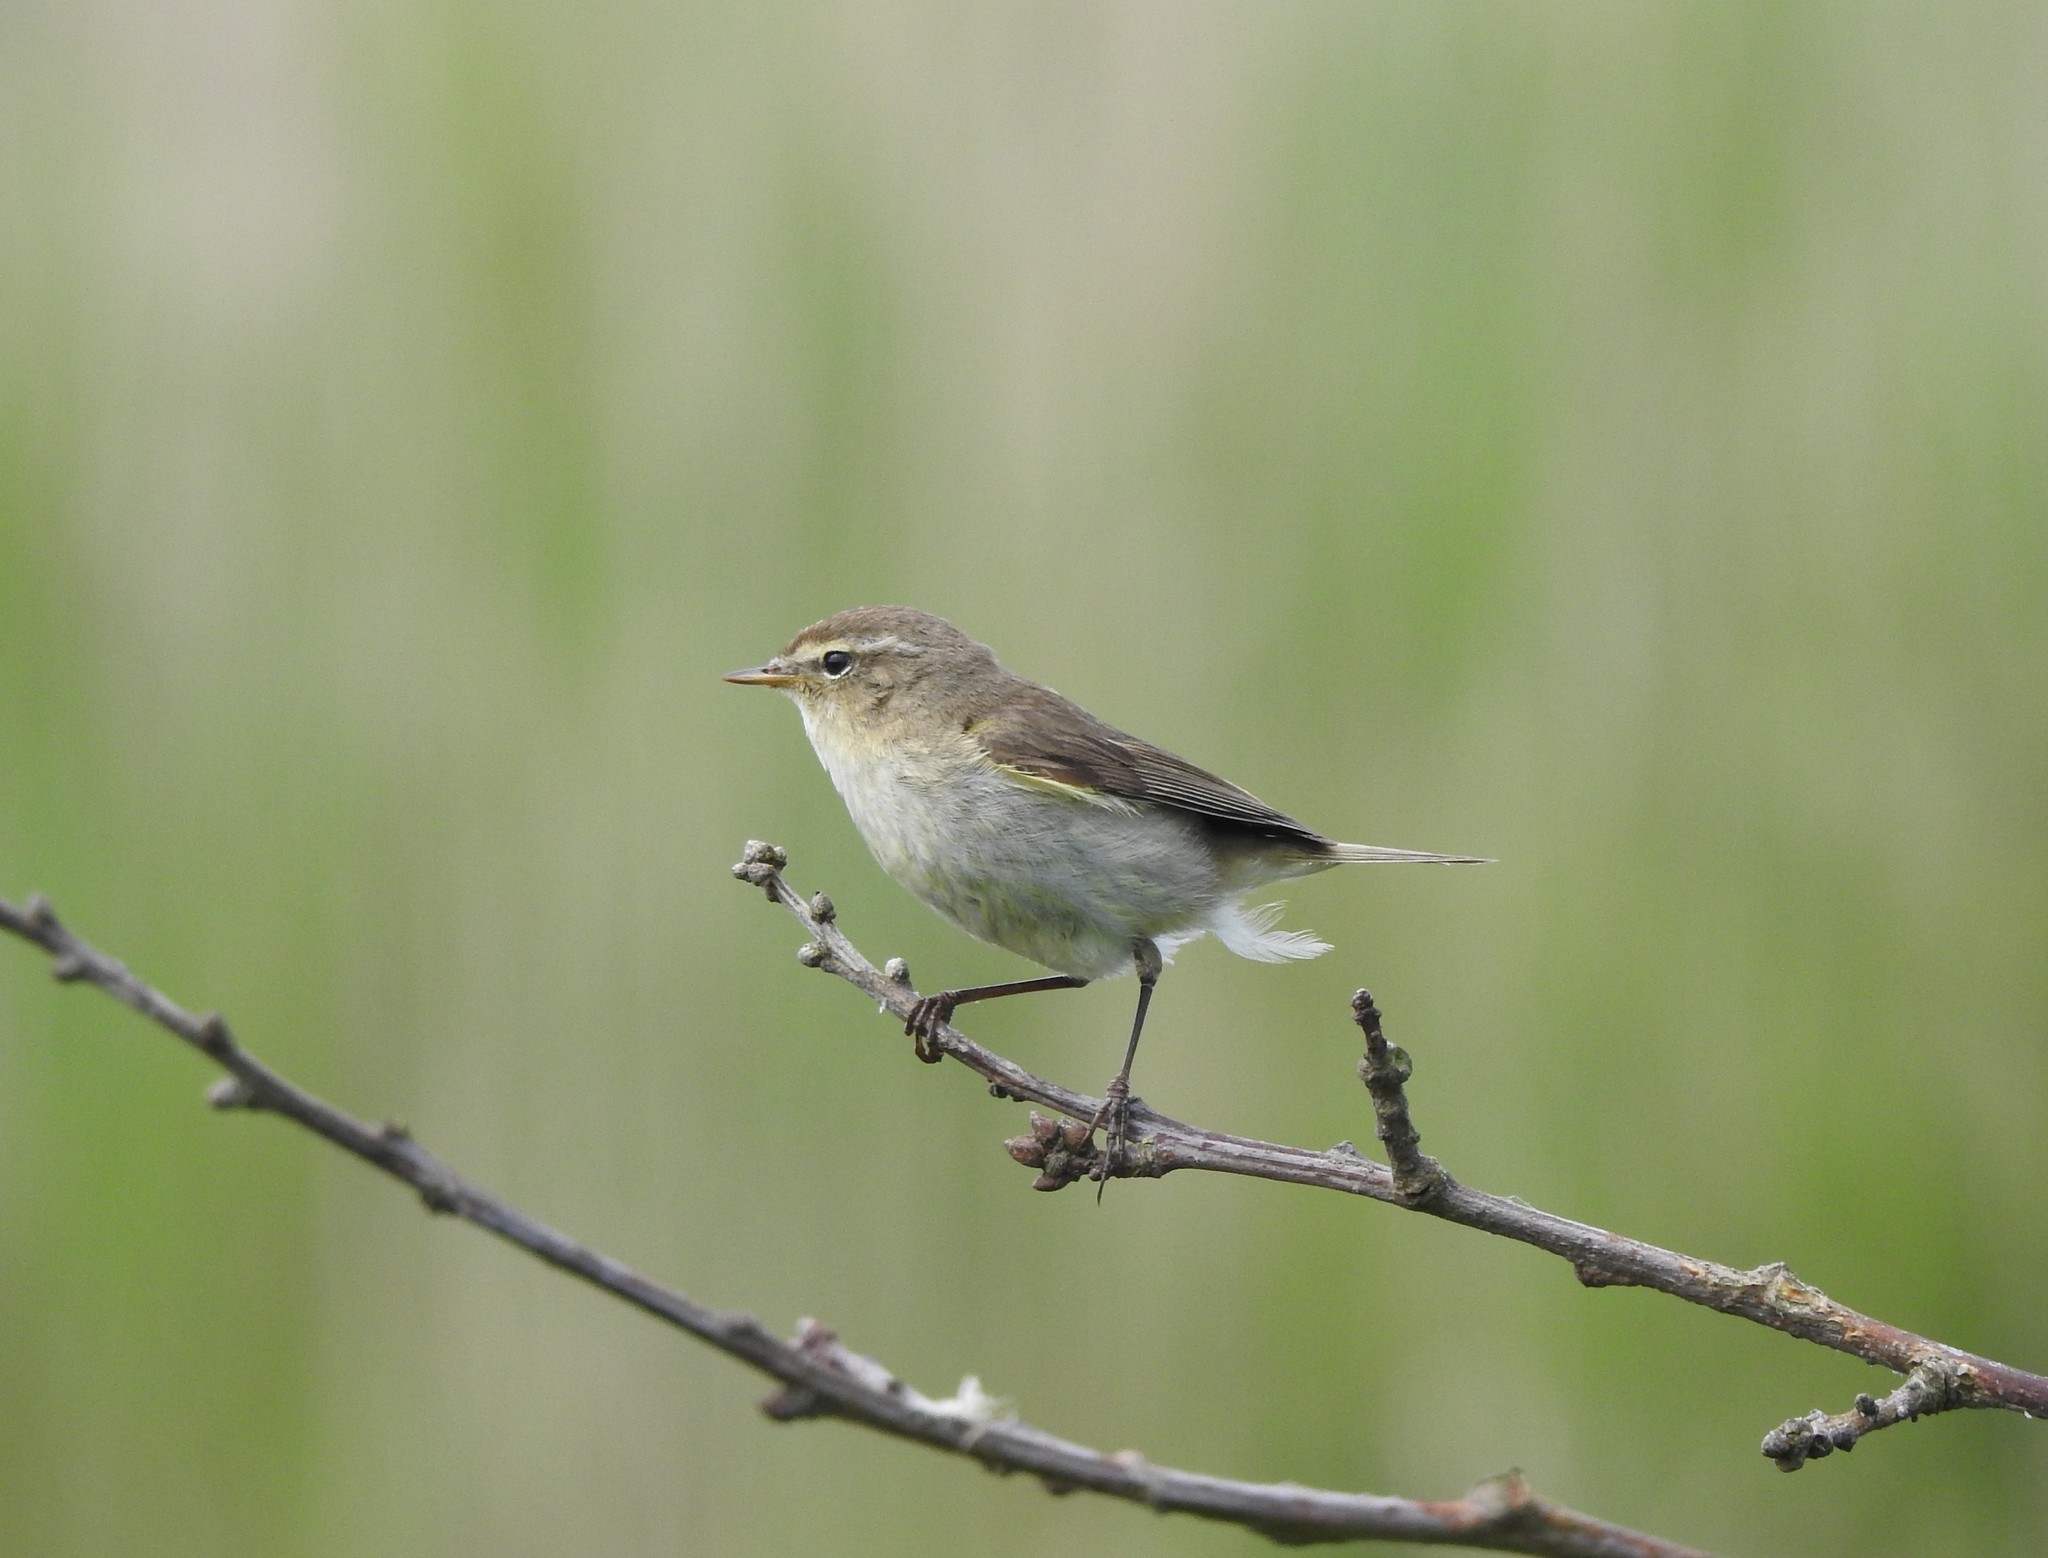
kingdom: Animalia
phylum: Chordata
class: Aves
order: Passeriformes
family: Phylloscopidae
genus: Phylloscopus
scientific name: Phylloscopus collybita
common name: Common chiffchaff
